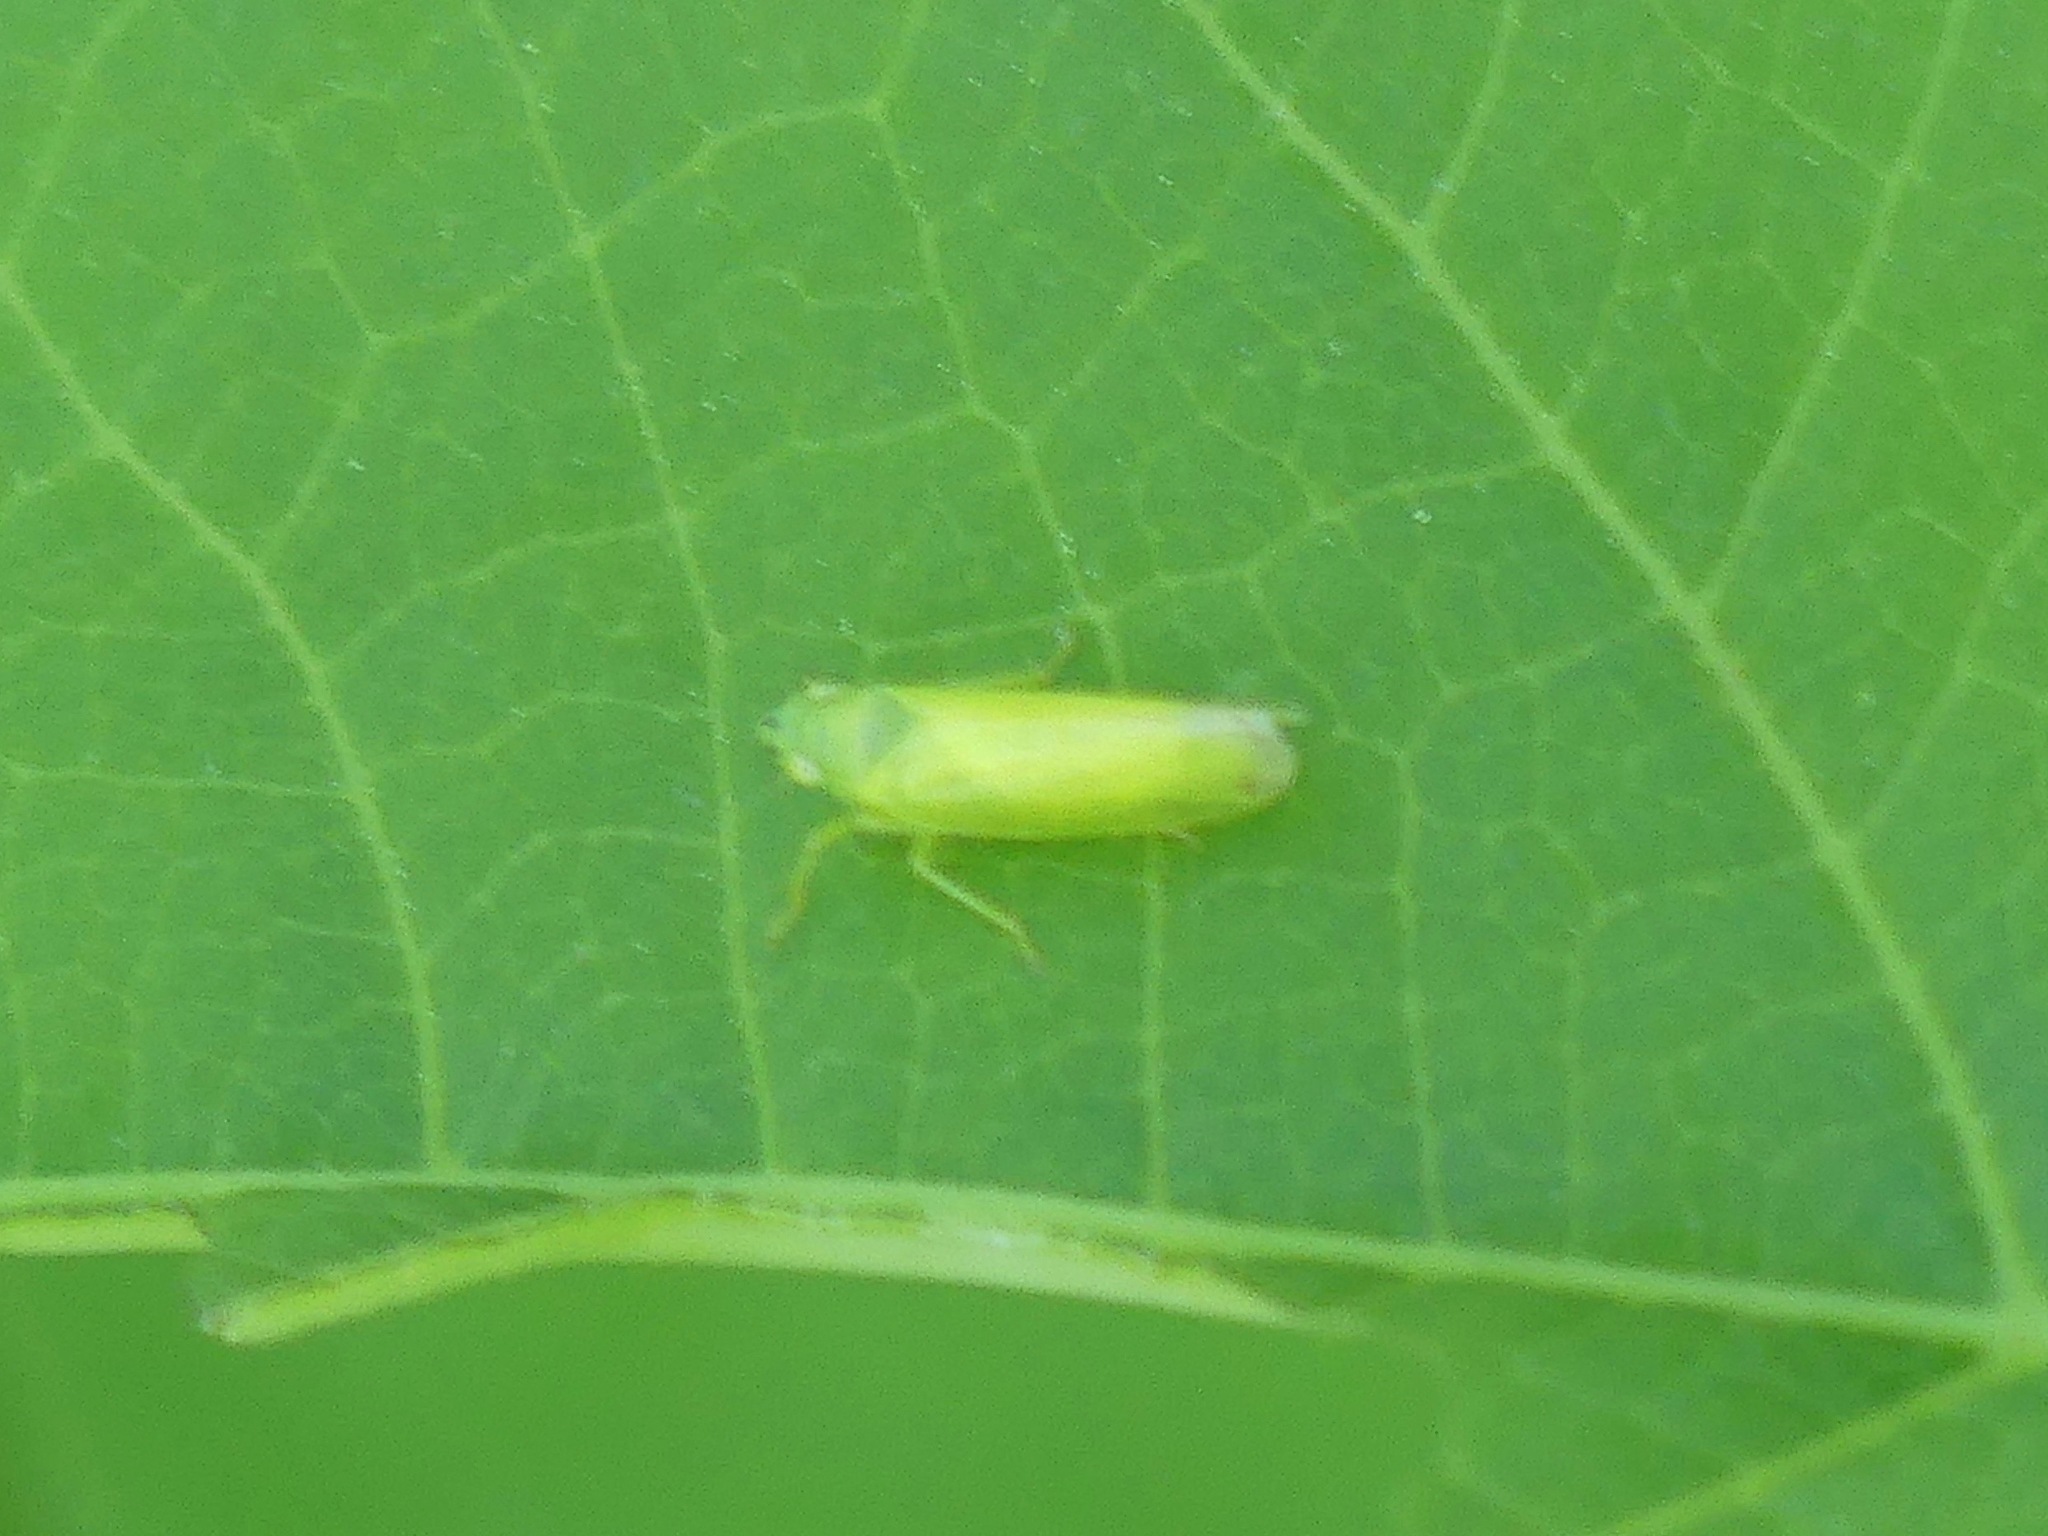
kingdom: Animalia
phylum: Arthropoda
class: Insecta
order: Hemiptera
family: Cicadellidae
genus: Pagaronia
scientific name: Pagaronia minor
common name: Leafhopper
